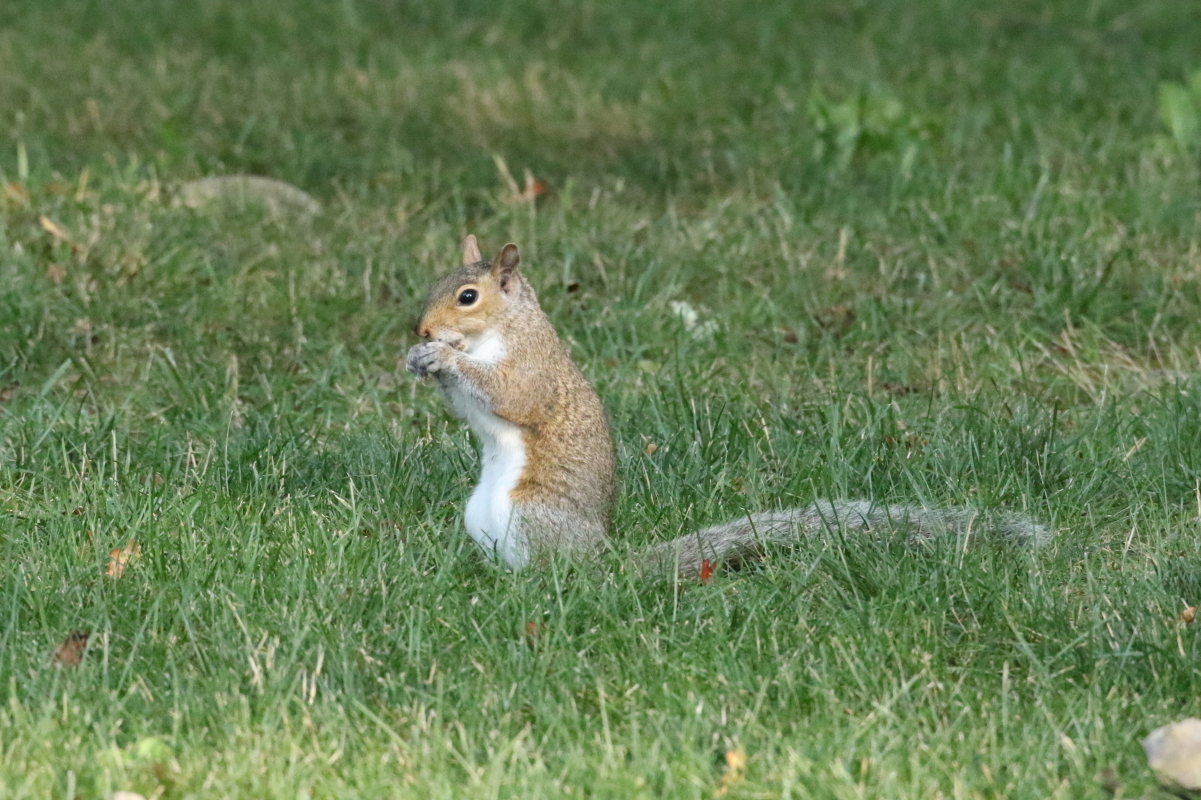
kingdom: Animalia
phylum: Chordata
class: Mammalia
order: Rodentia
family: Sciuridae
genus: Sciurus
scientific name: Sciurus carolinensis
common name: Eastern gray squirrel
